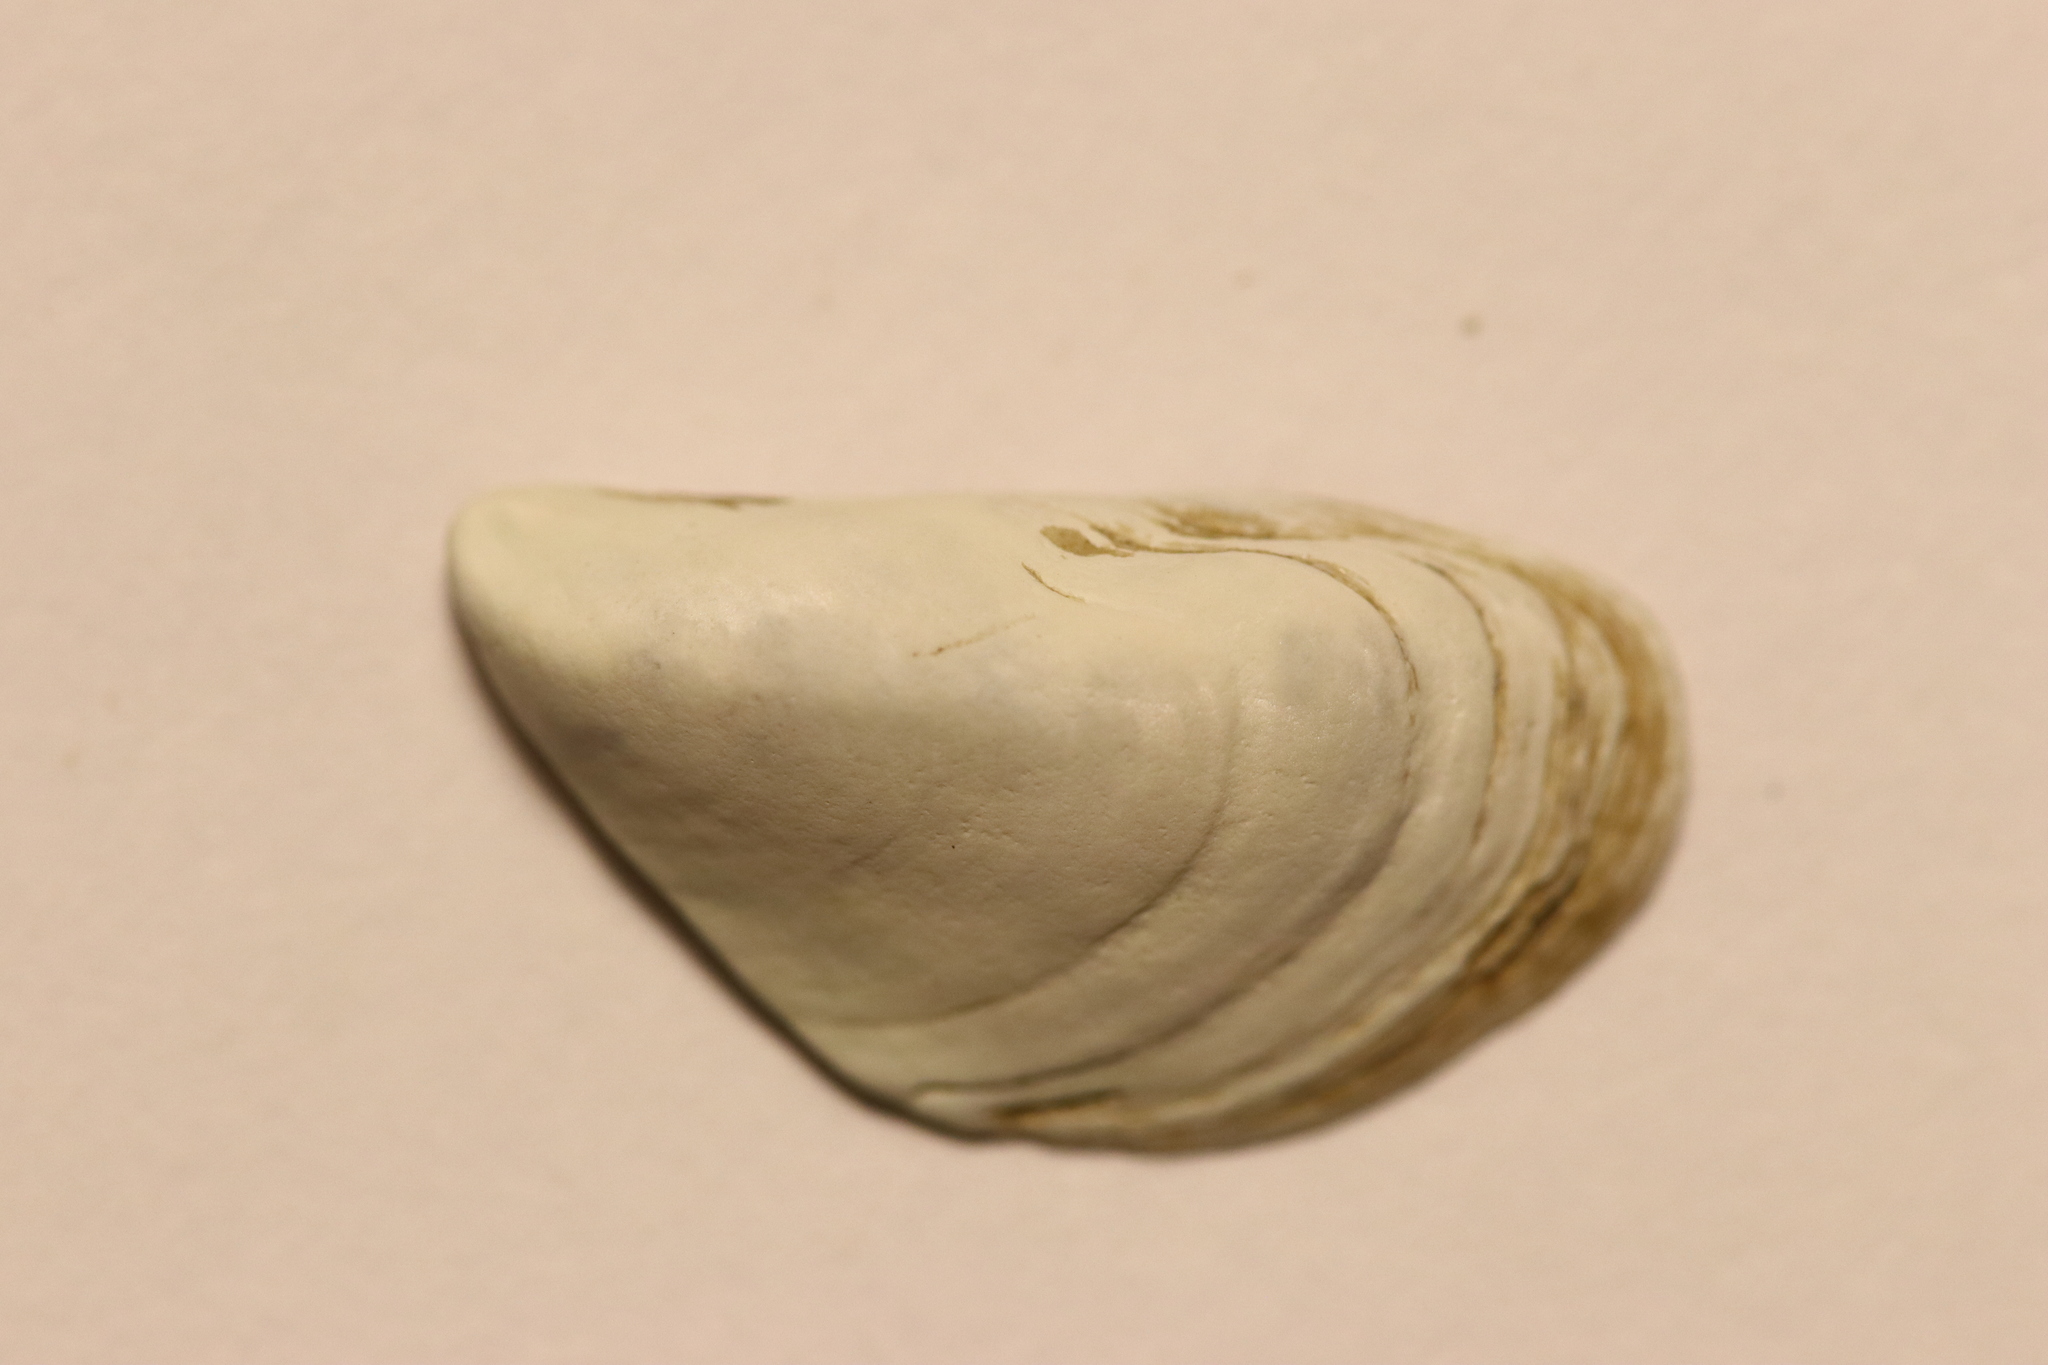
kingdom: Animalia
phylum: Mollusca
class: Bivalvia
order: Myida
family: Dreissenidae
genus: Dreissena
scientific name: Dreissena bugensis
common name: Quagga mussel
